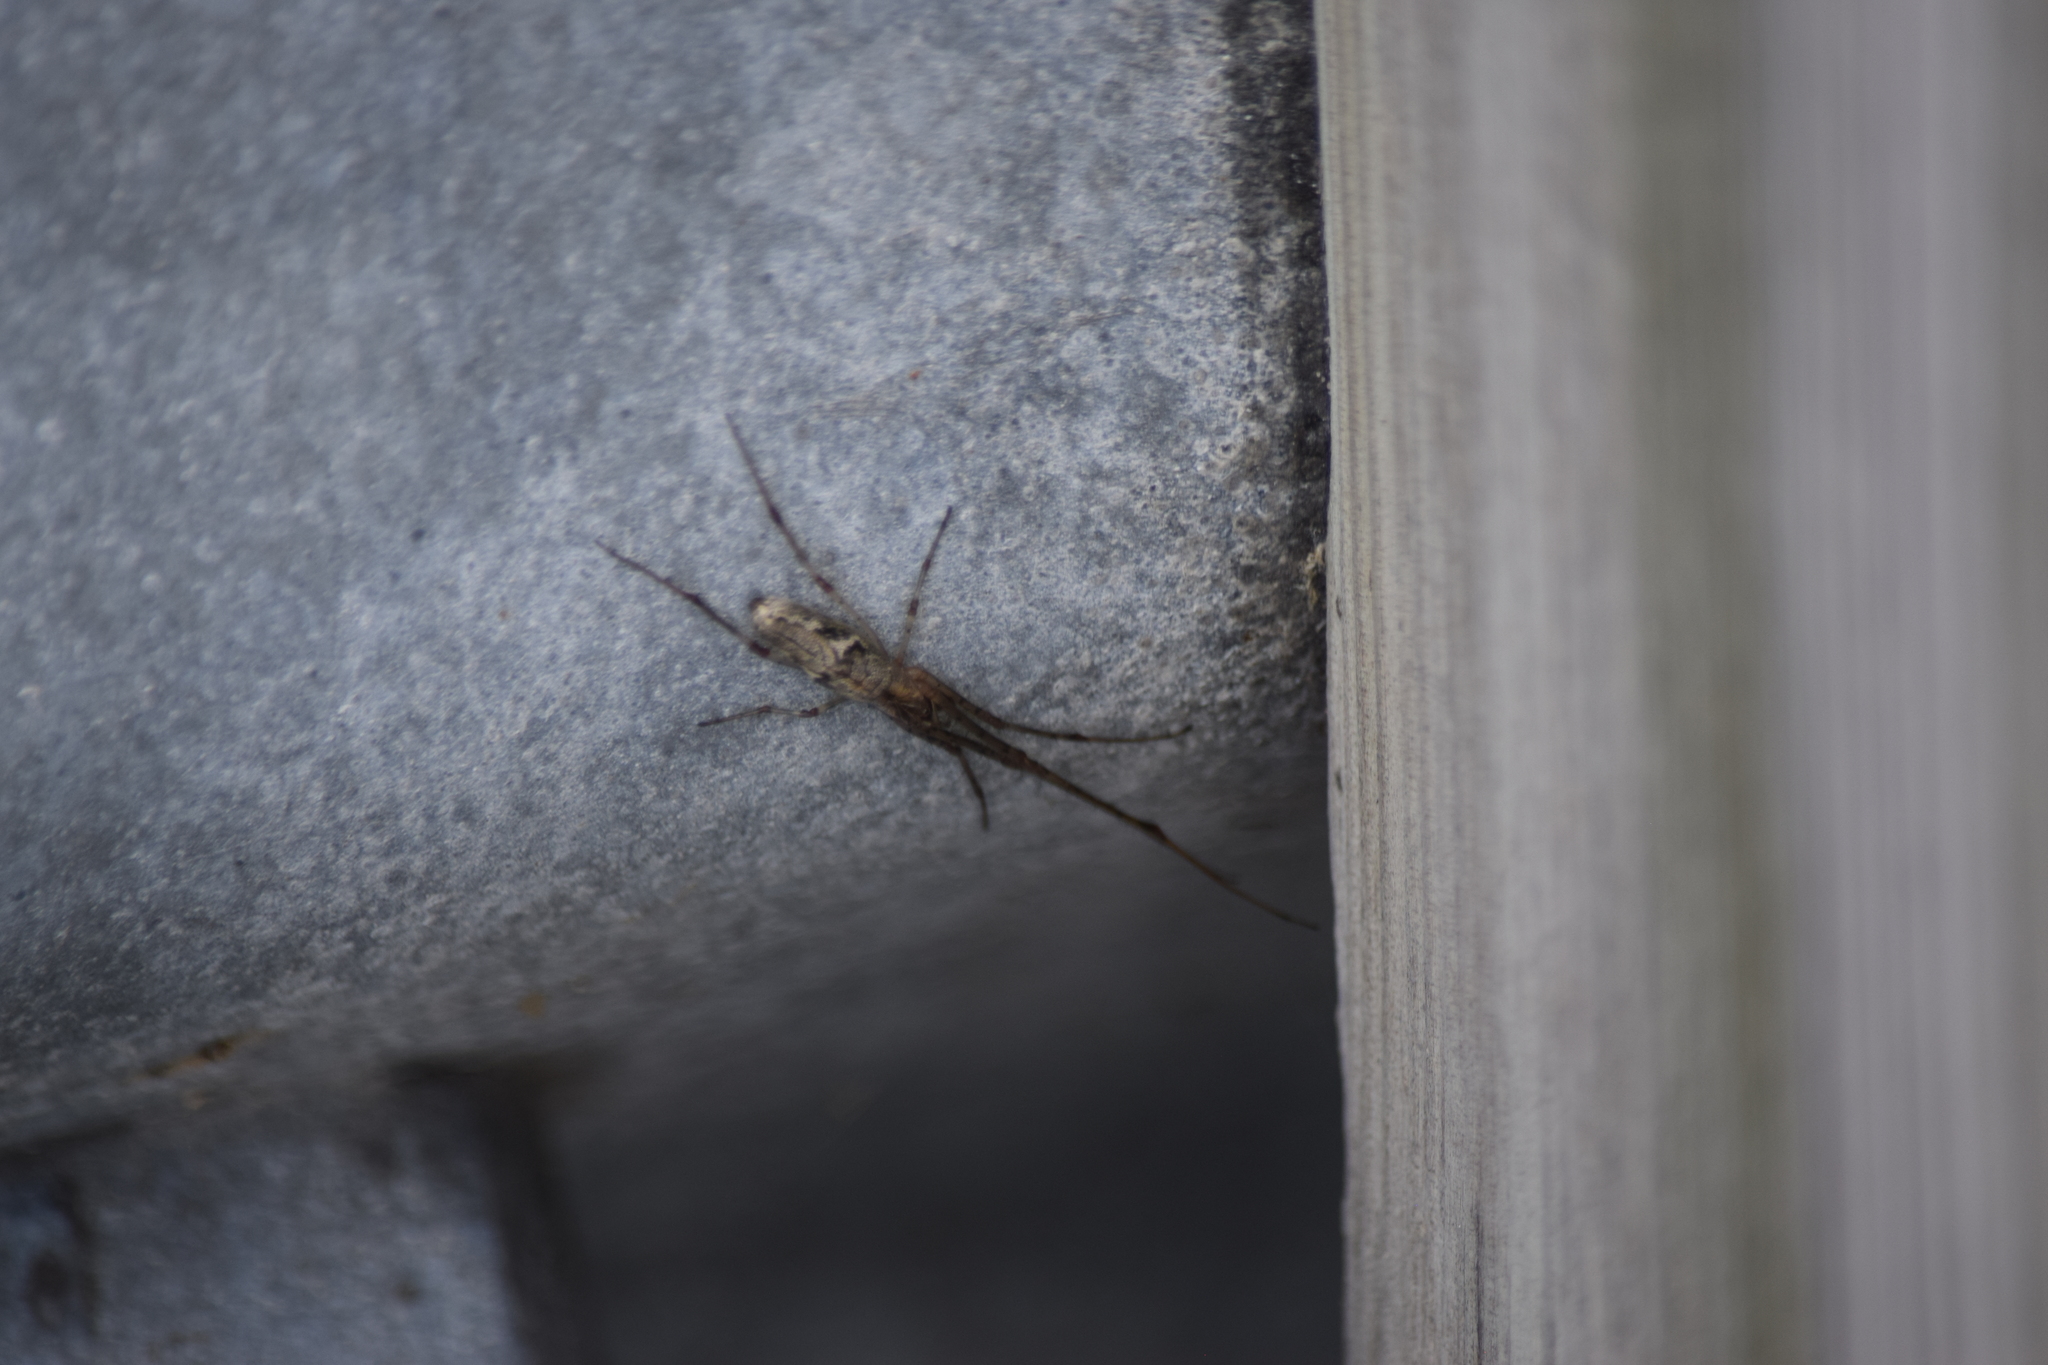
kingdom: Animalia
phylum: Arthropoda
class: Arachnida
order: Araneae
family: Tetragnathidae
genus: Tetragnatha
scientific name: Tetragnatha
